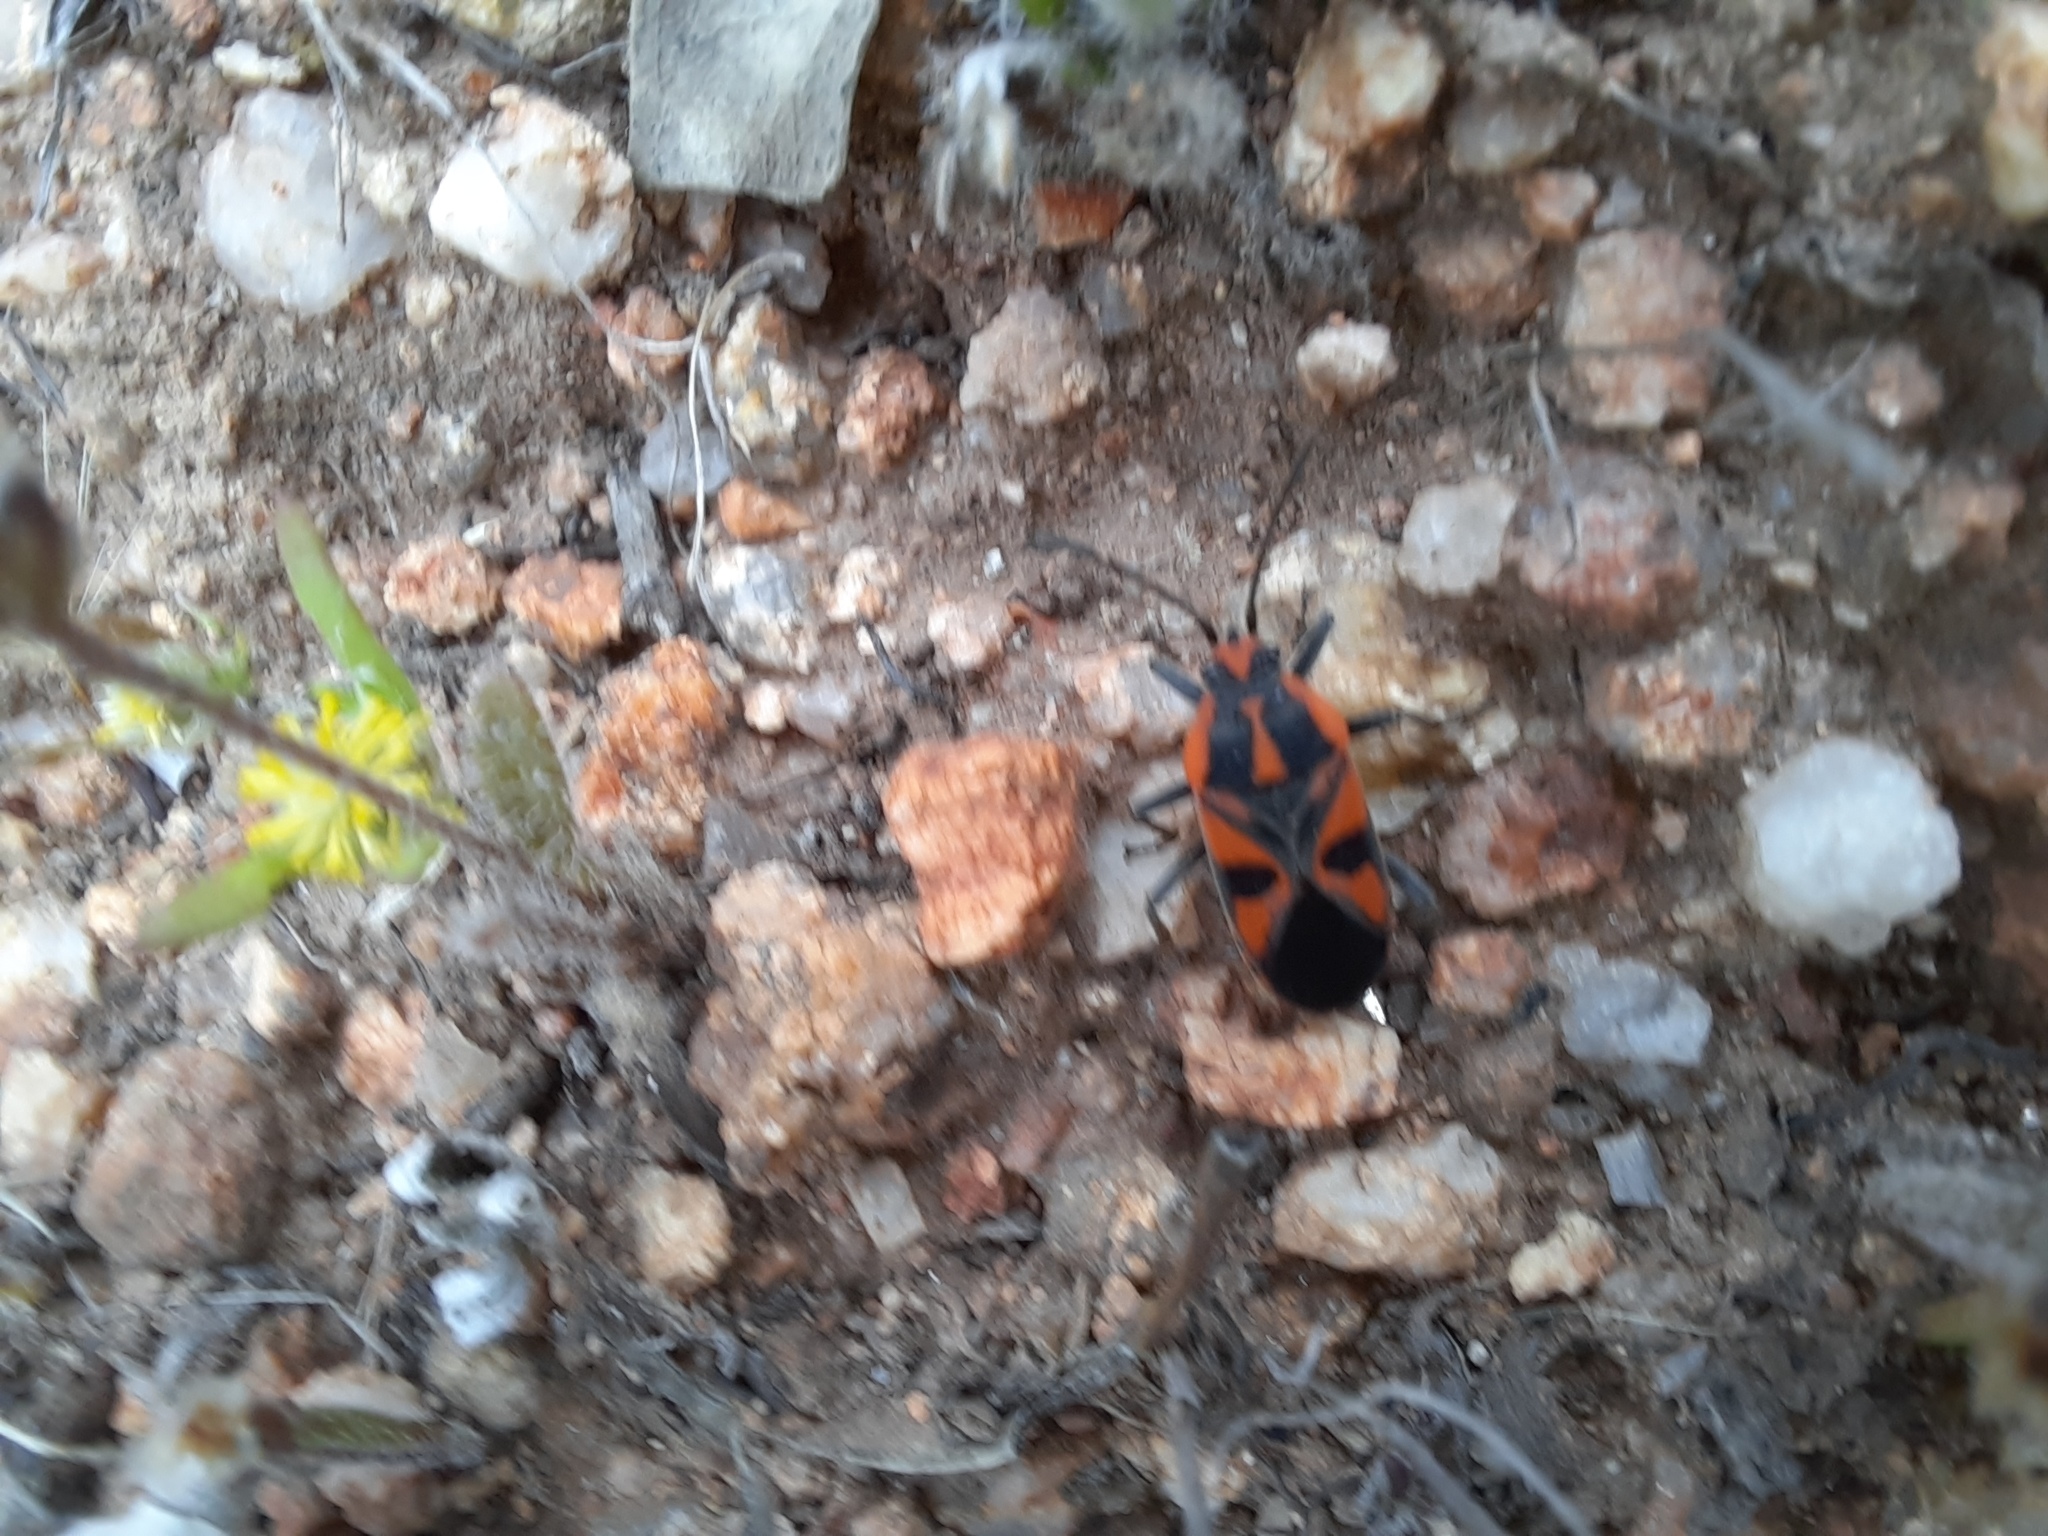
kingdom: Animalia
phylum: Arthropoda
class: Insecta
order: Hemiptera
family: Lygaeidae
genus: Spilostethus
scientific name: Spilostethus pacificus
